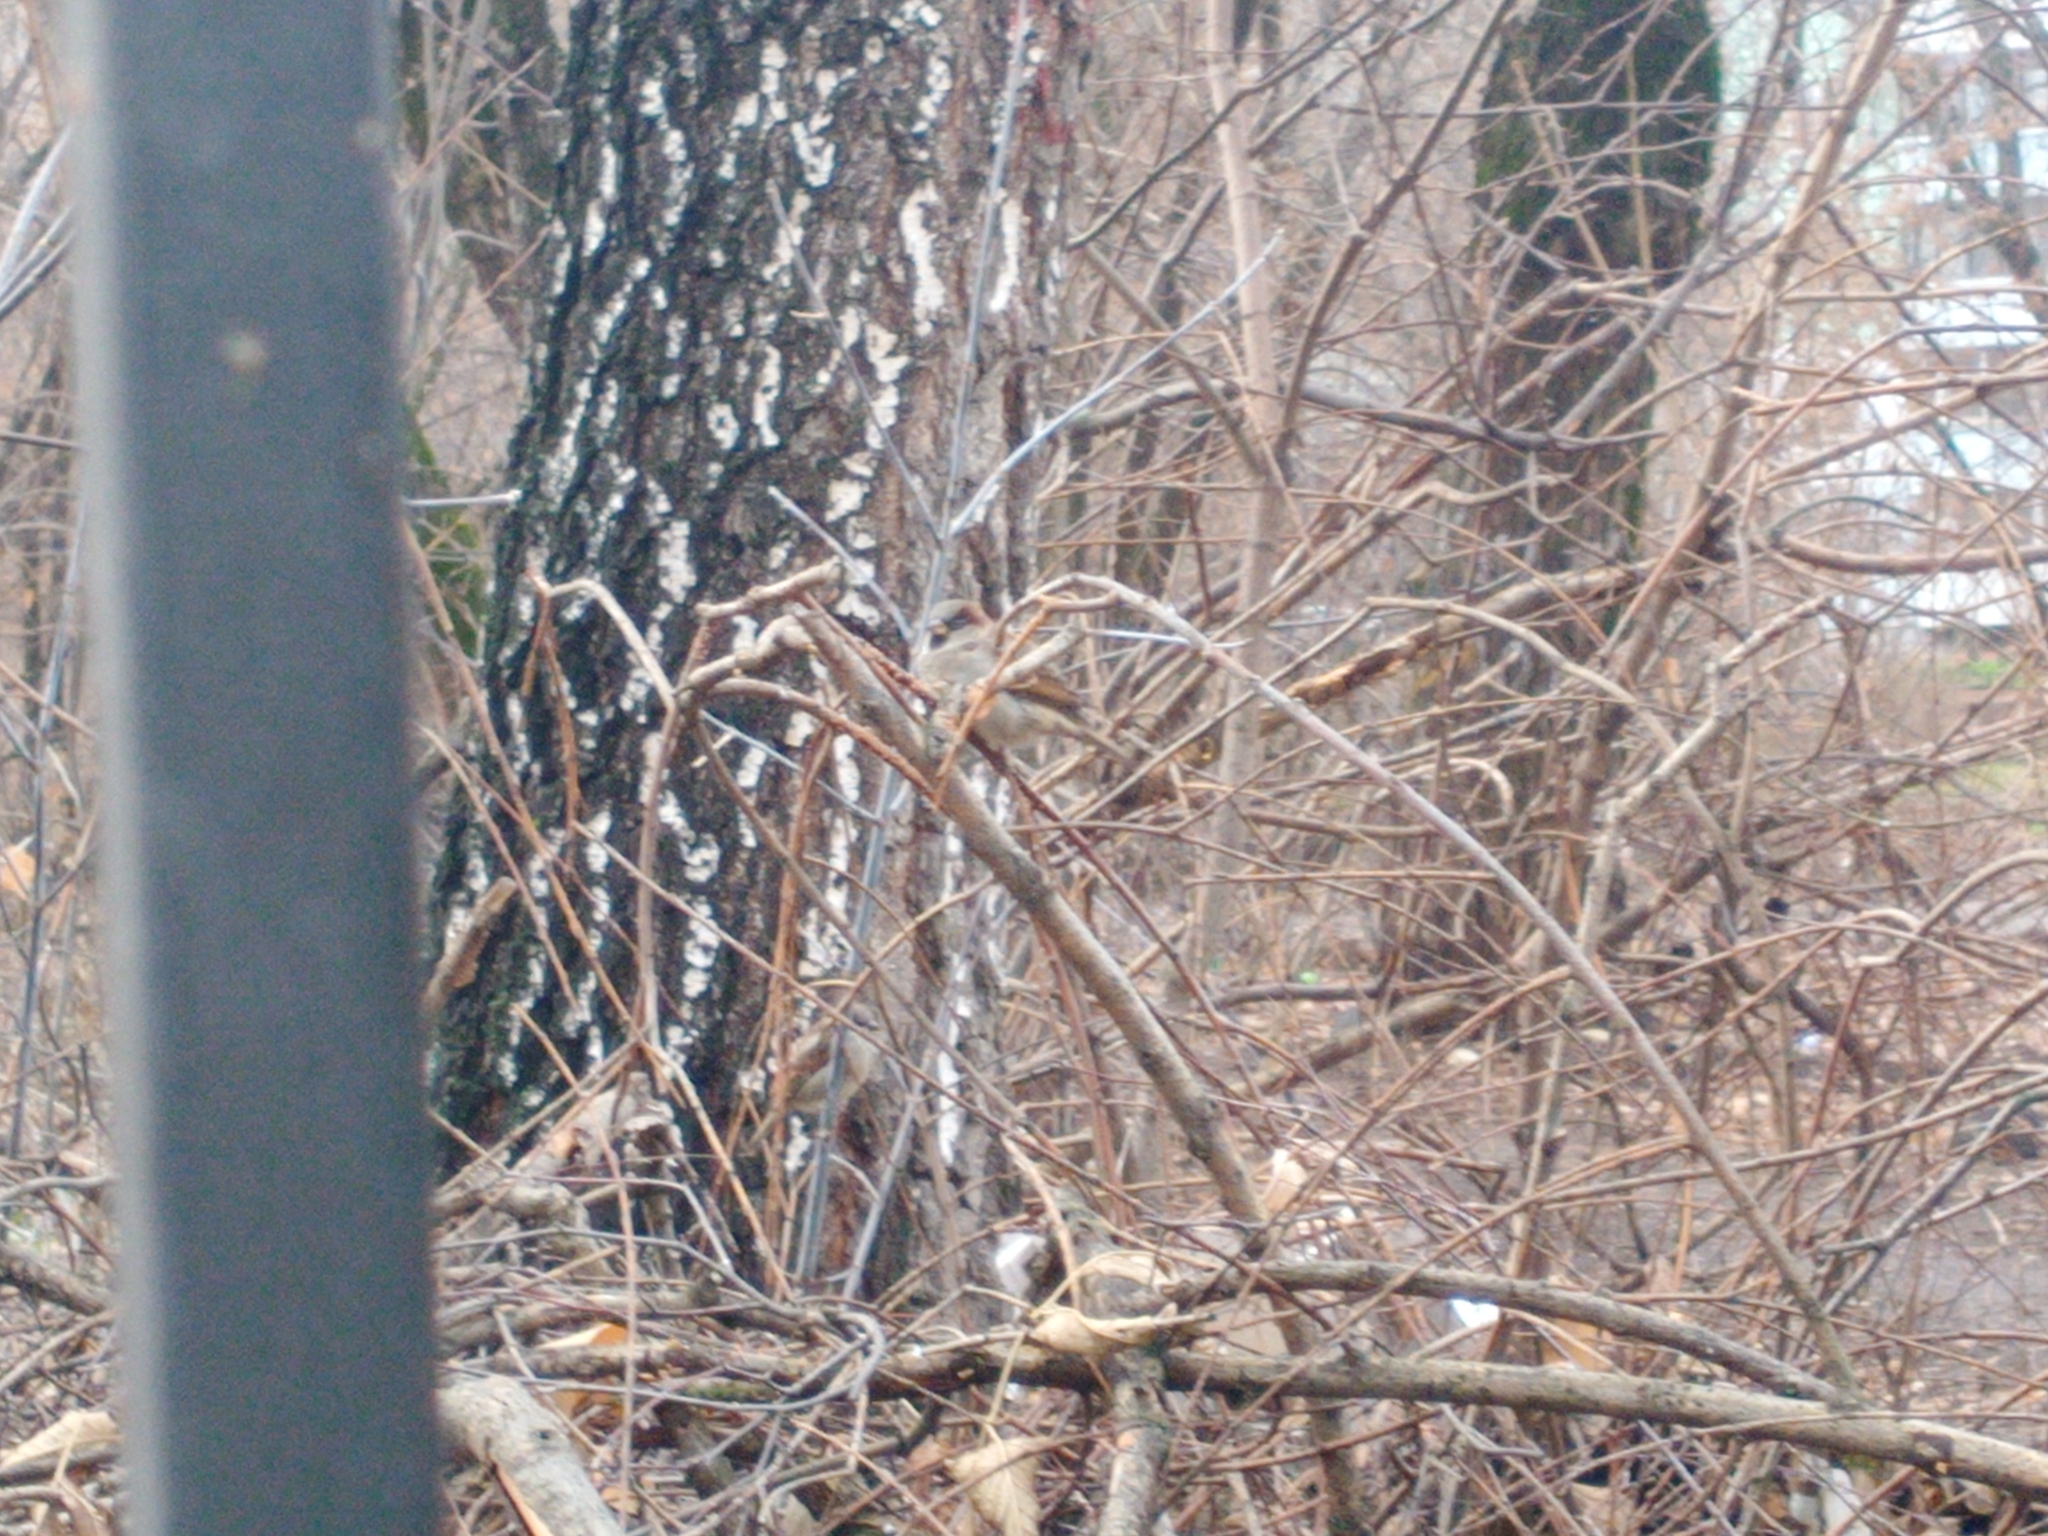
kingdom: Animalia
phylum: Chordata
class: Aves
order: Passeriformes
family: Passeridae
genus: Passer
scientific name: Passer domesticus
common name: House sparrow
